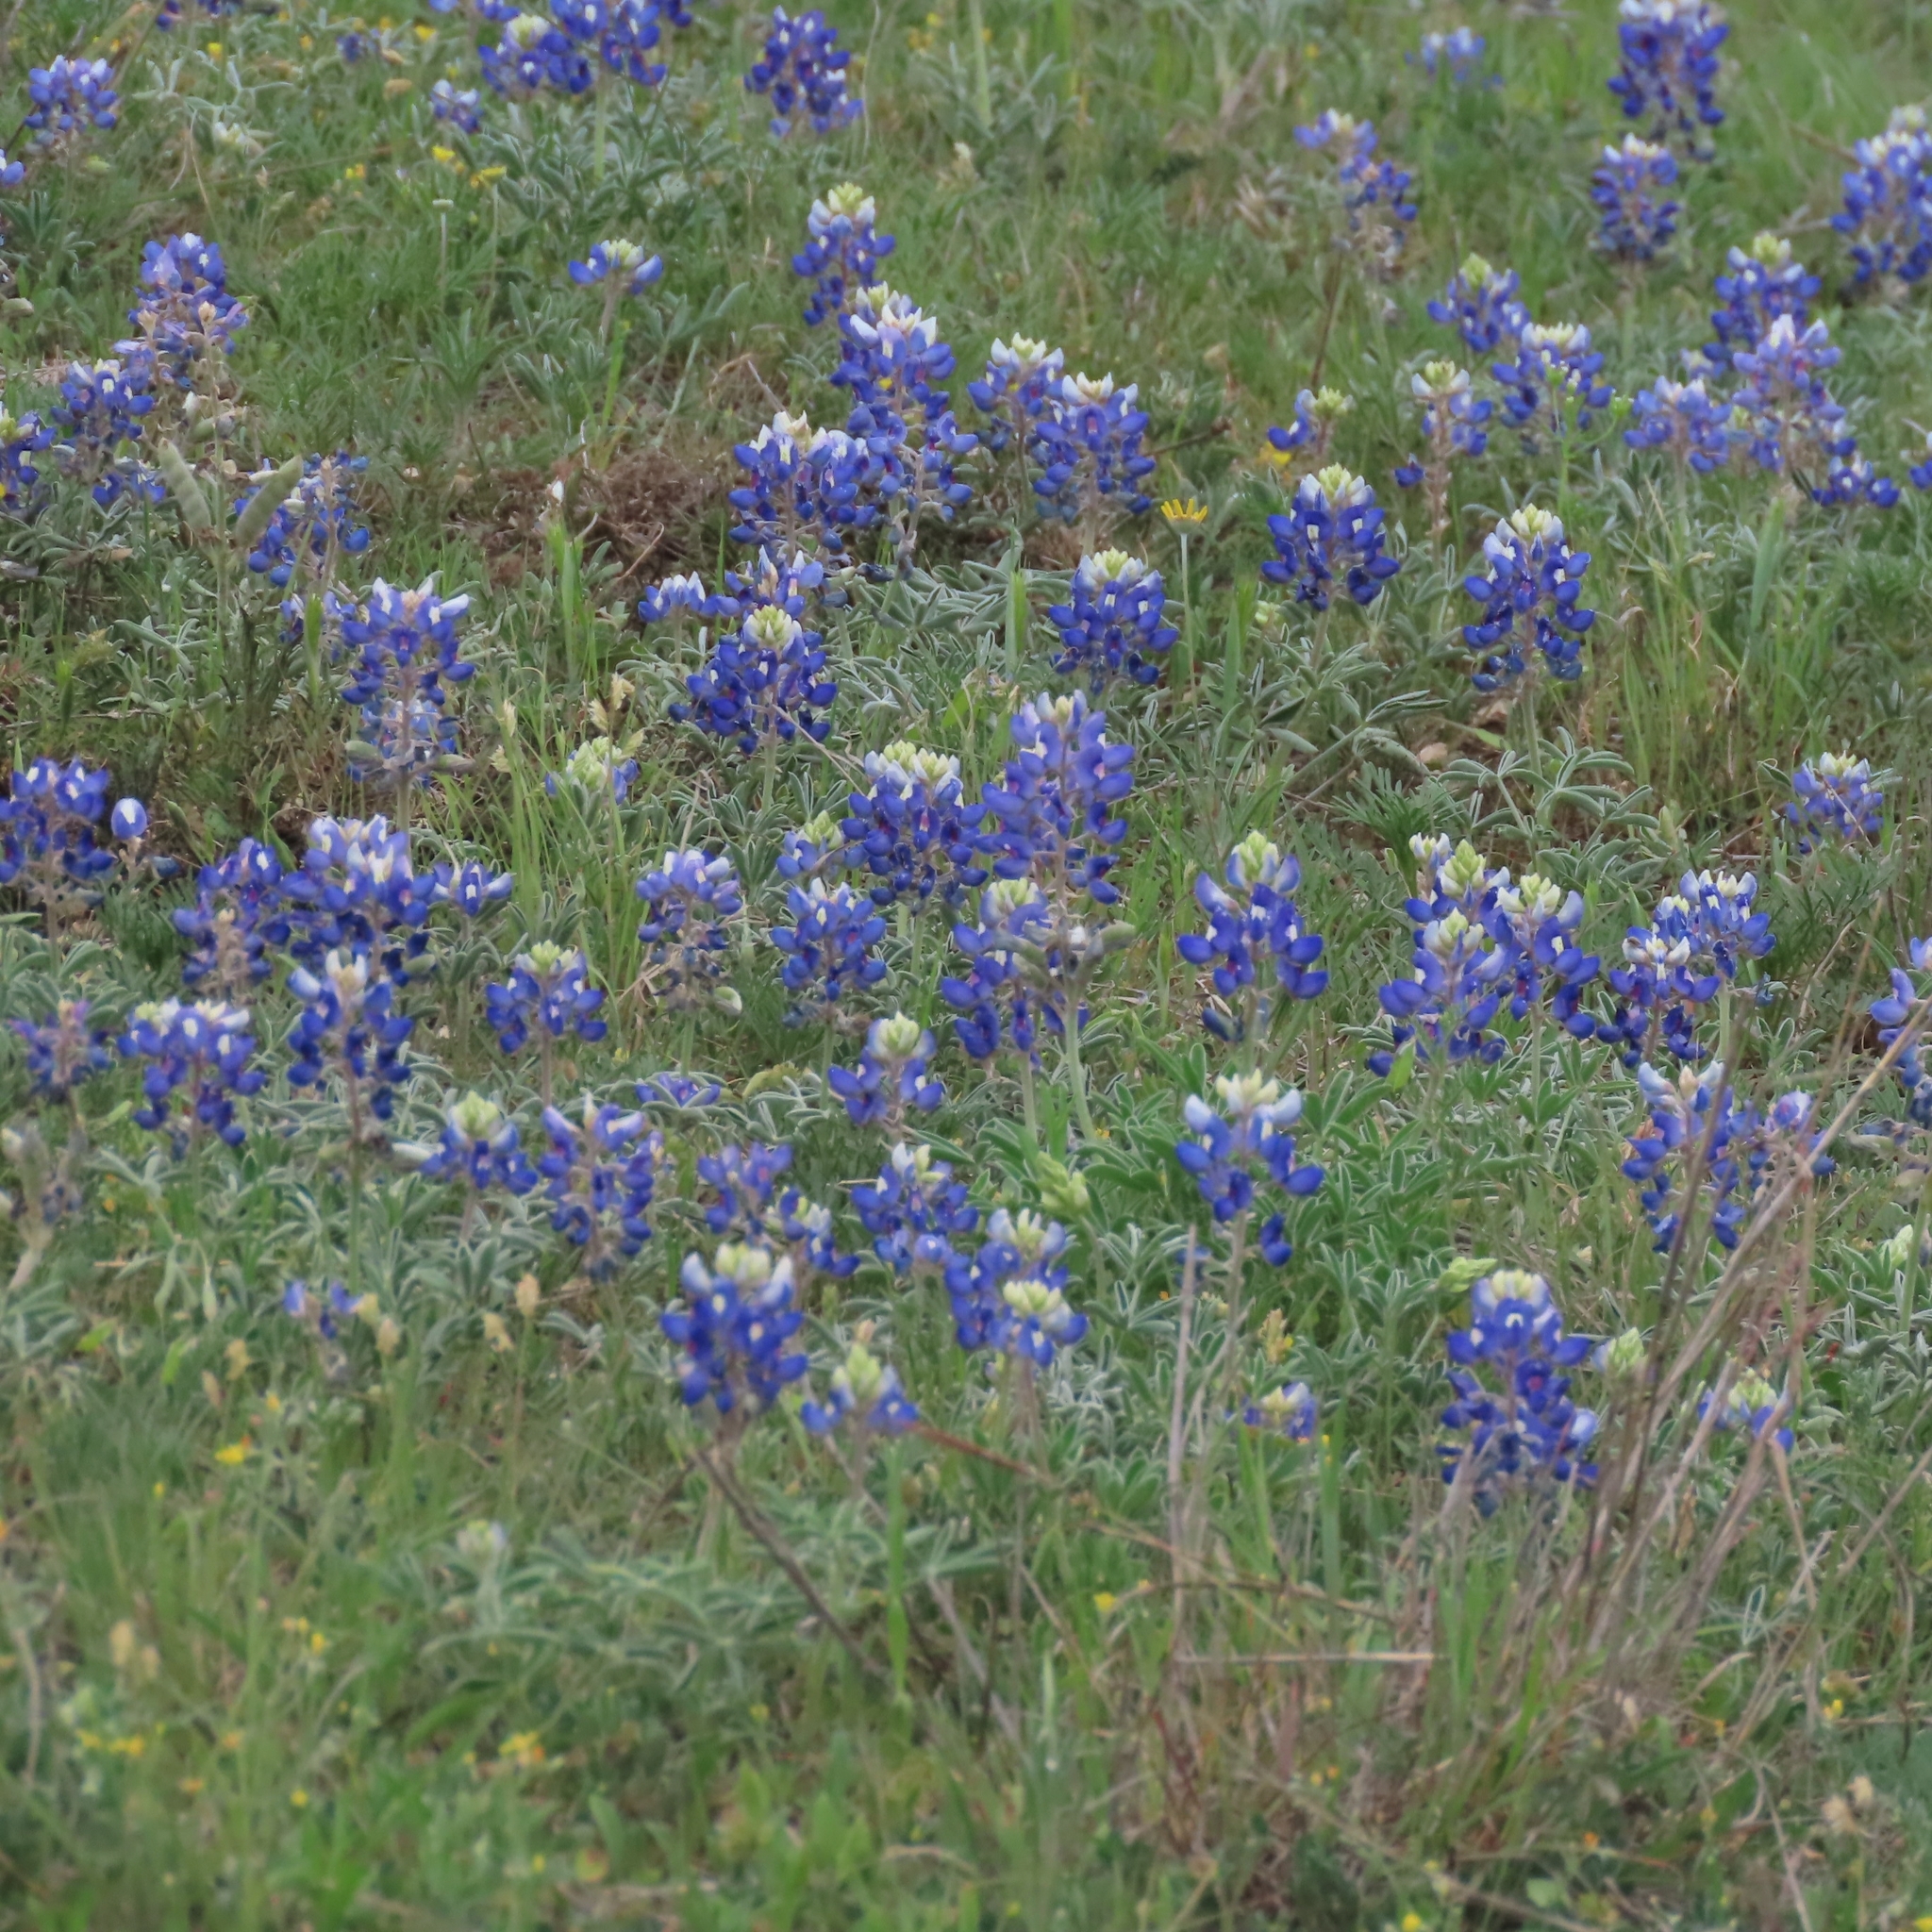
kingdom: Plantae
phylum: Tracheophyta
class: Magnoliopsida
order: Fabales
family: Fabaceae
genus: Lupinus
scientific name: Lupinus texensis
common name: Texas bluebonnet
